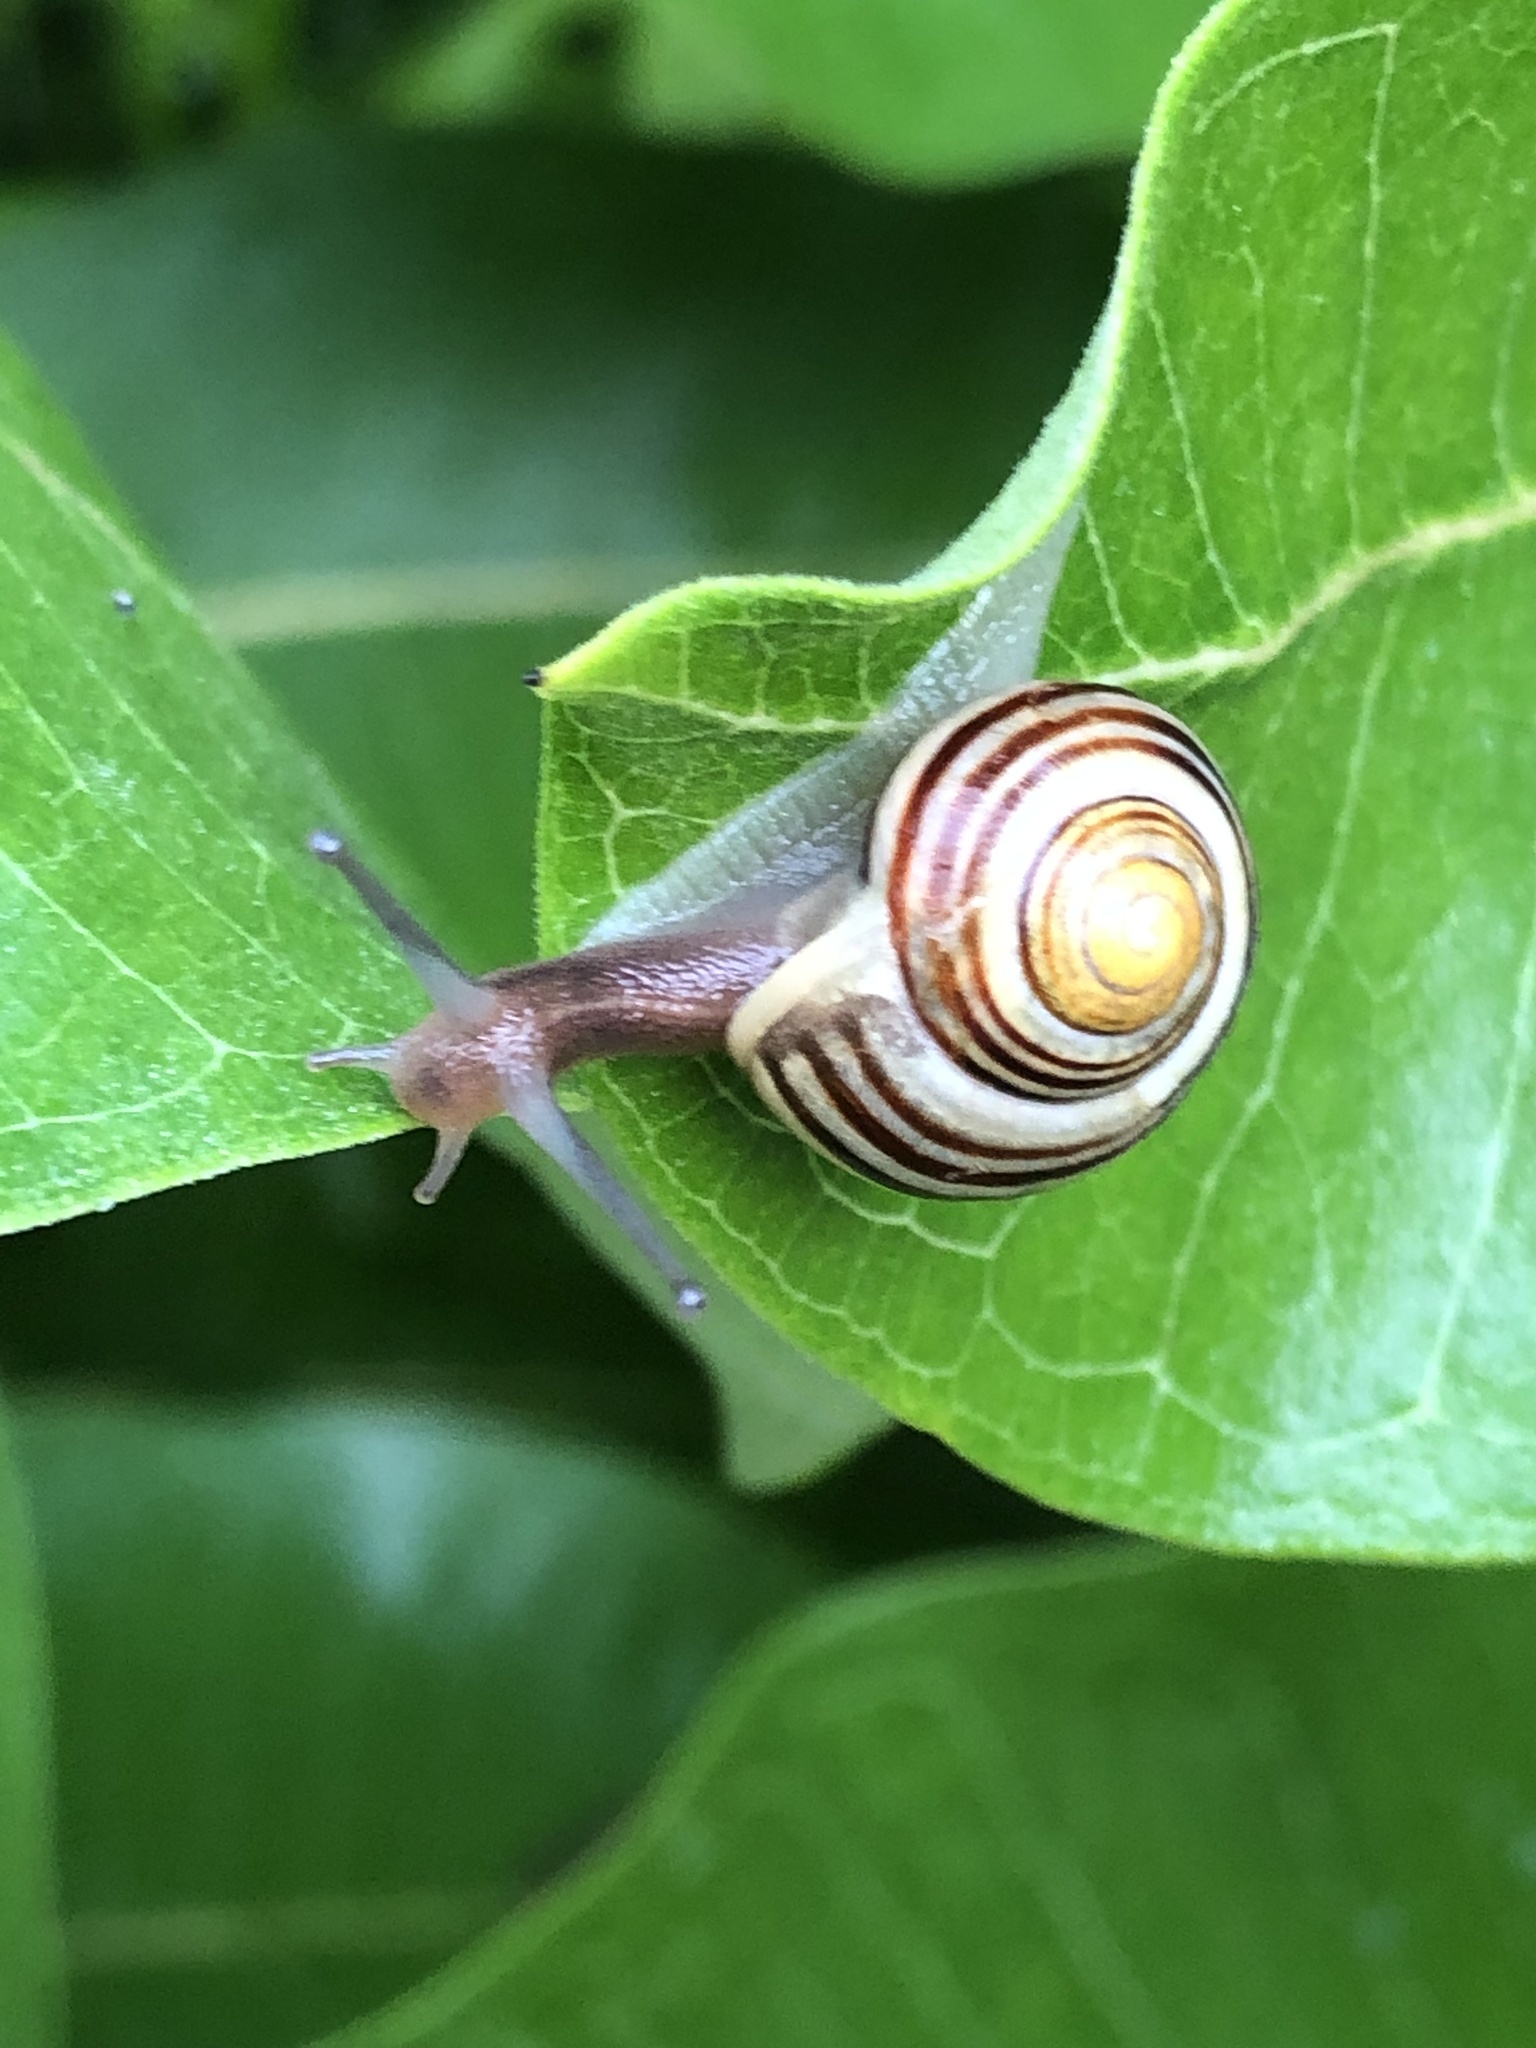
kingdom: Animalia
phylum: Mollusca
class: Gastropoda
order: Stylommatophora
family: Helicidae
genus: Cepaea
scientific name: Cepaea
